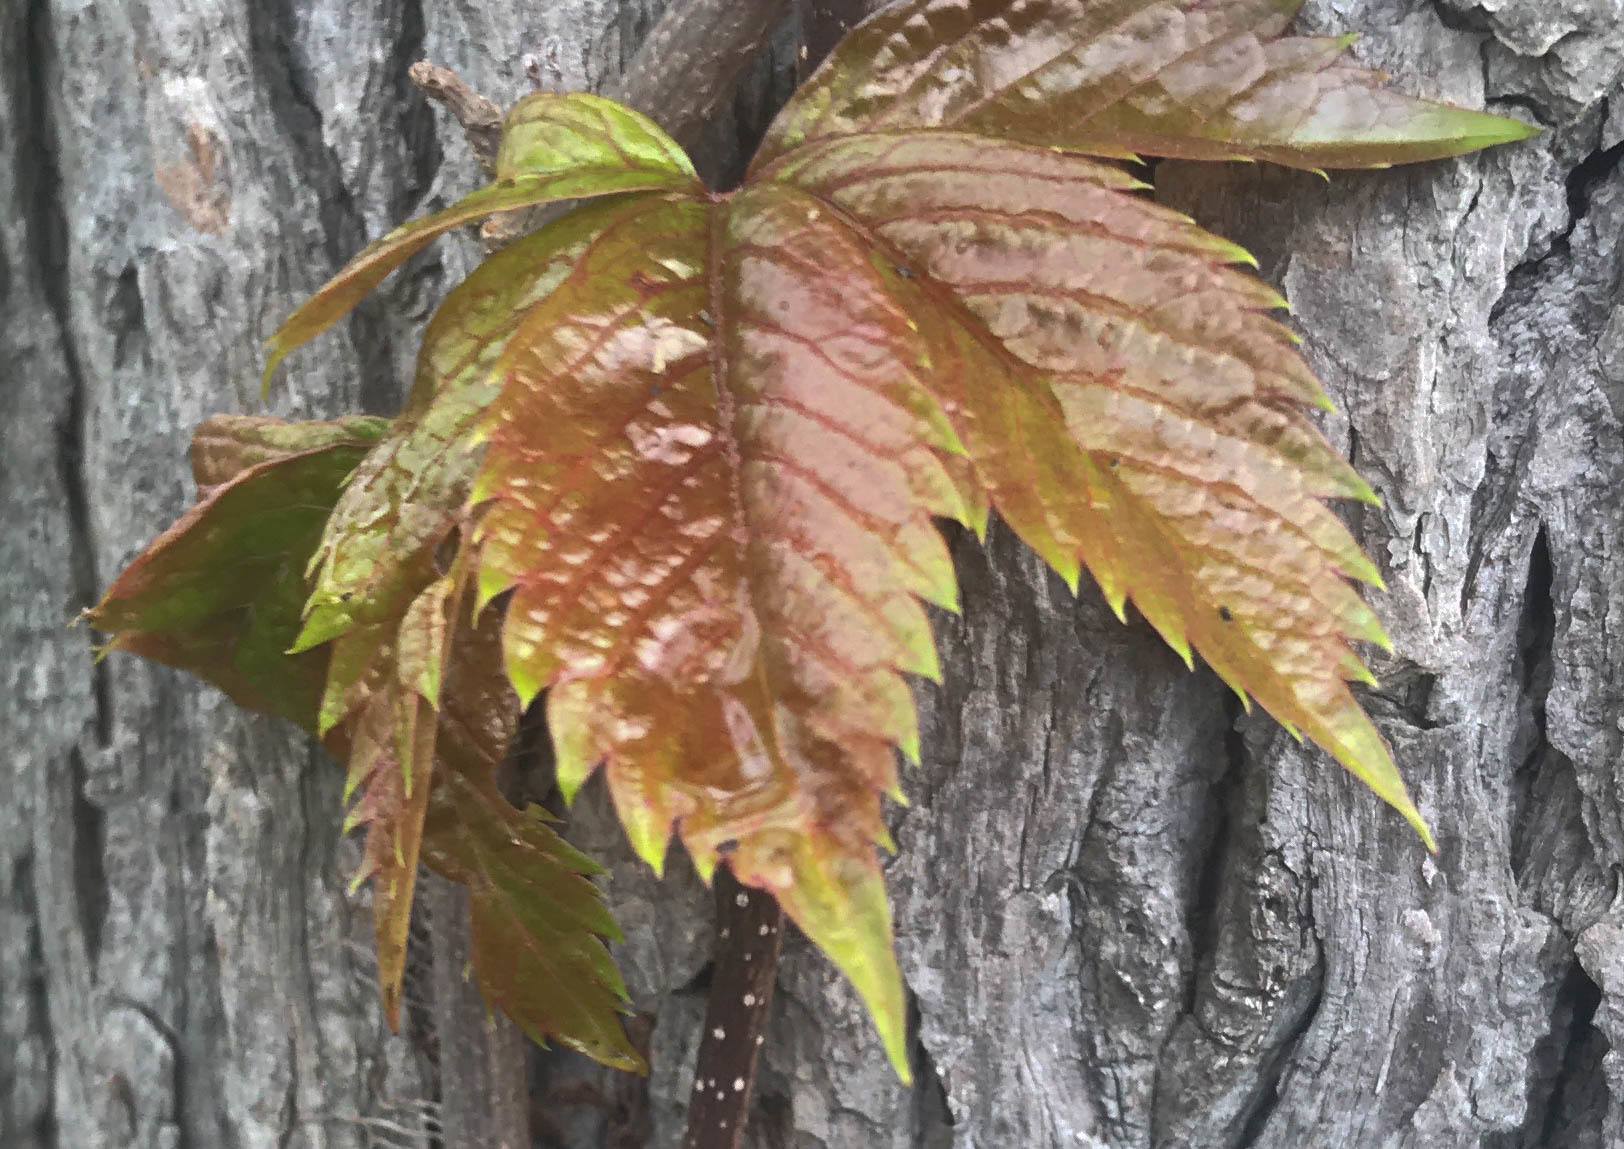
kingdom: Plantae
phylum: Tracheophyta
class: Magnoliopsida
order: Vitales
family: Vitaceae
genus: Parthenocissus
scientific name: Parthenocissus quinquefolia
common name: Virginia-creeper
